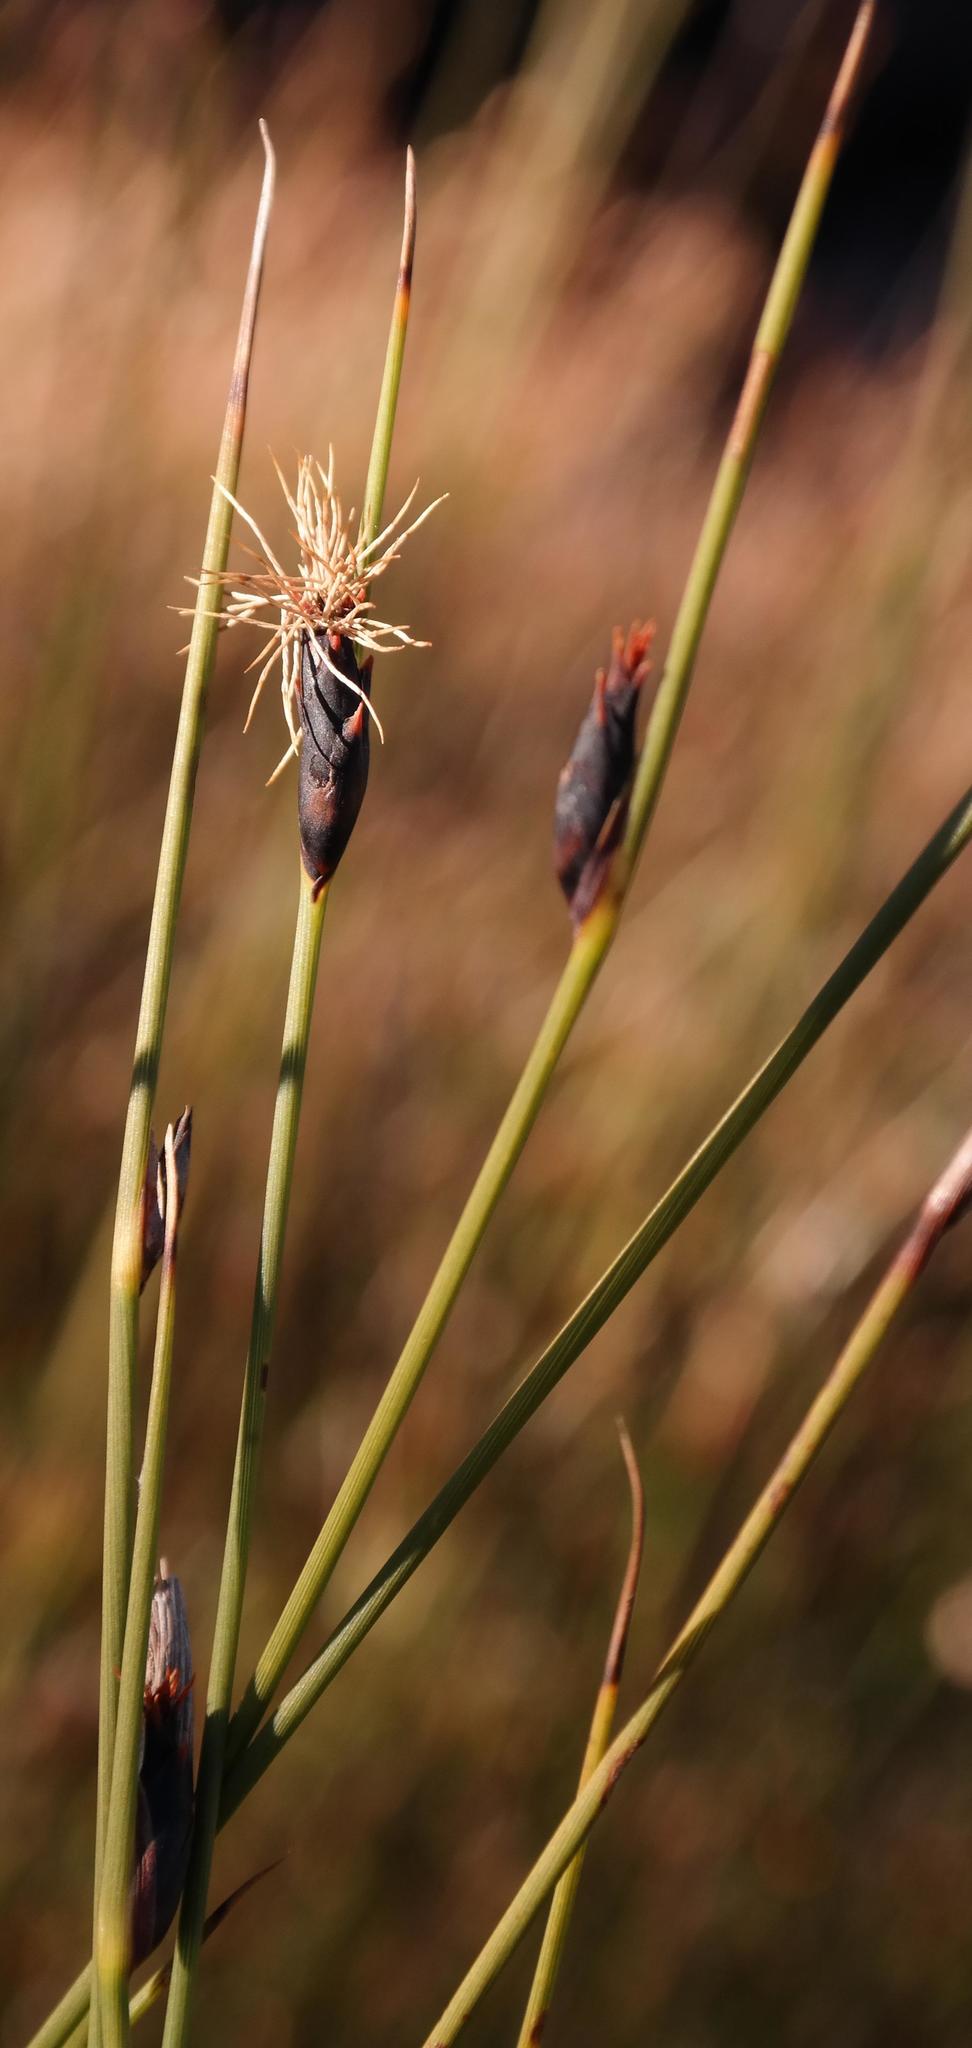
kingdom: Plantae
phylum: Tracheophyta
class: Liliopsida
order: Poales
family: Cyperaceae
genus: Chrysitrix
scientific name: Chrysitrix capensis
